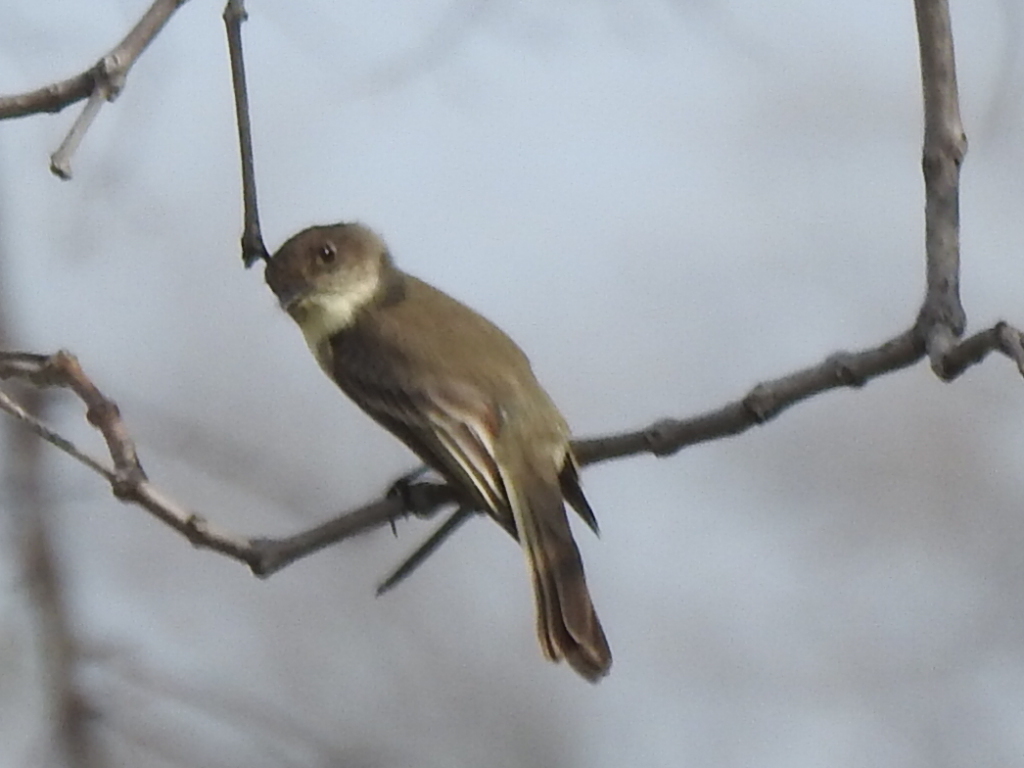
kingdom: Animalia
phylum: Chordata
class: Aves
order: Passeriformes
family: Tyrannidae
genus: Sayornis
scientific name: Sayornis phoebe
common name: Eastern phoebe
